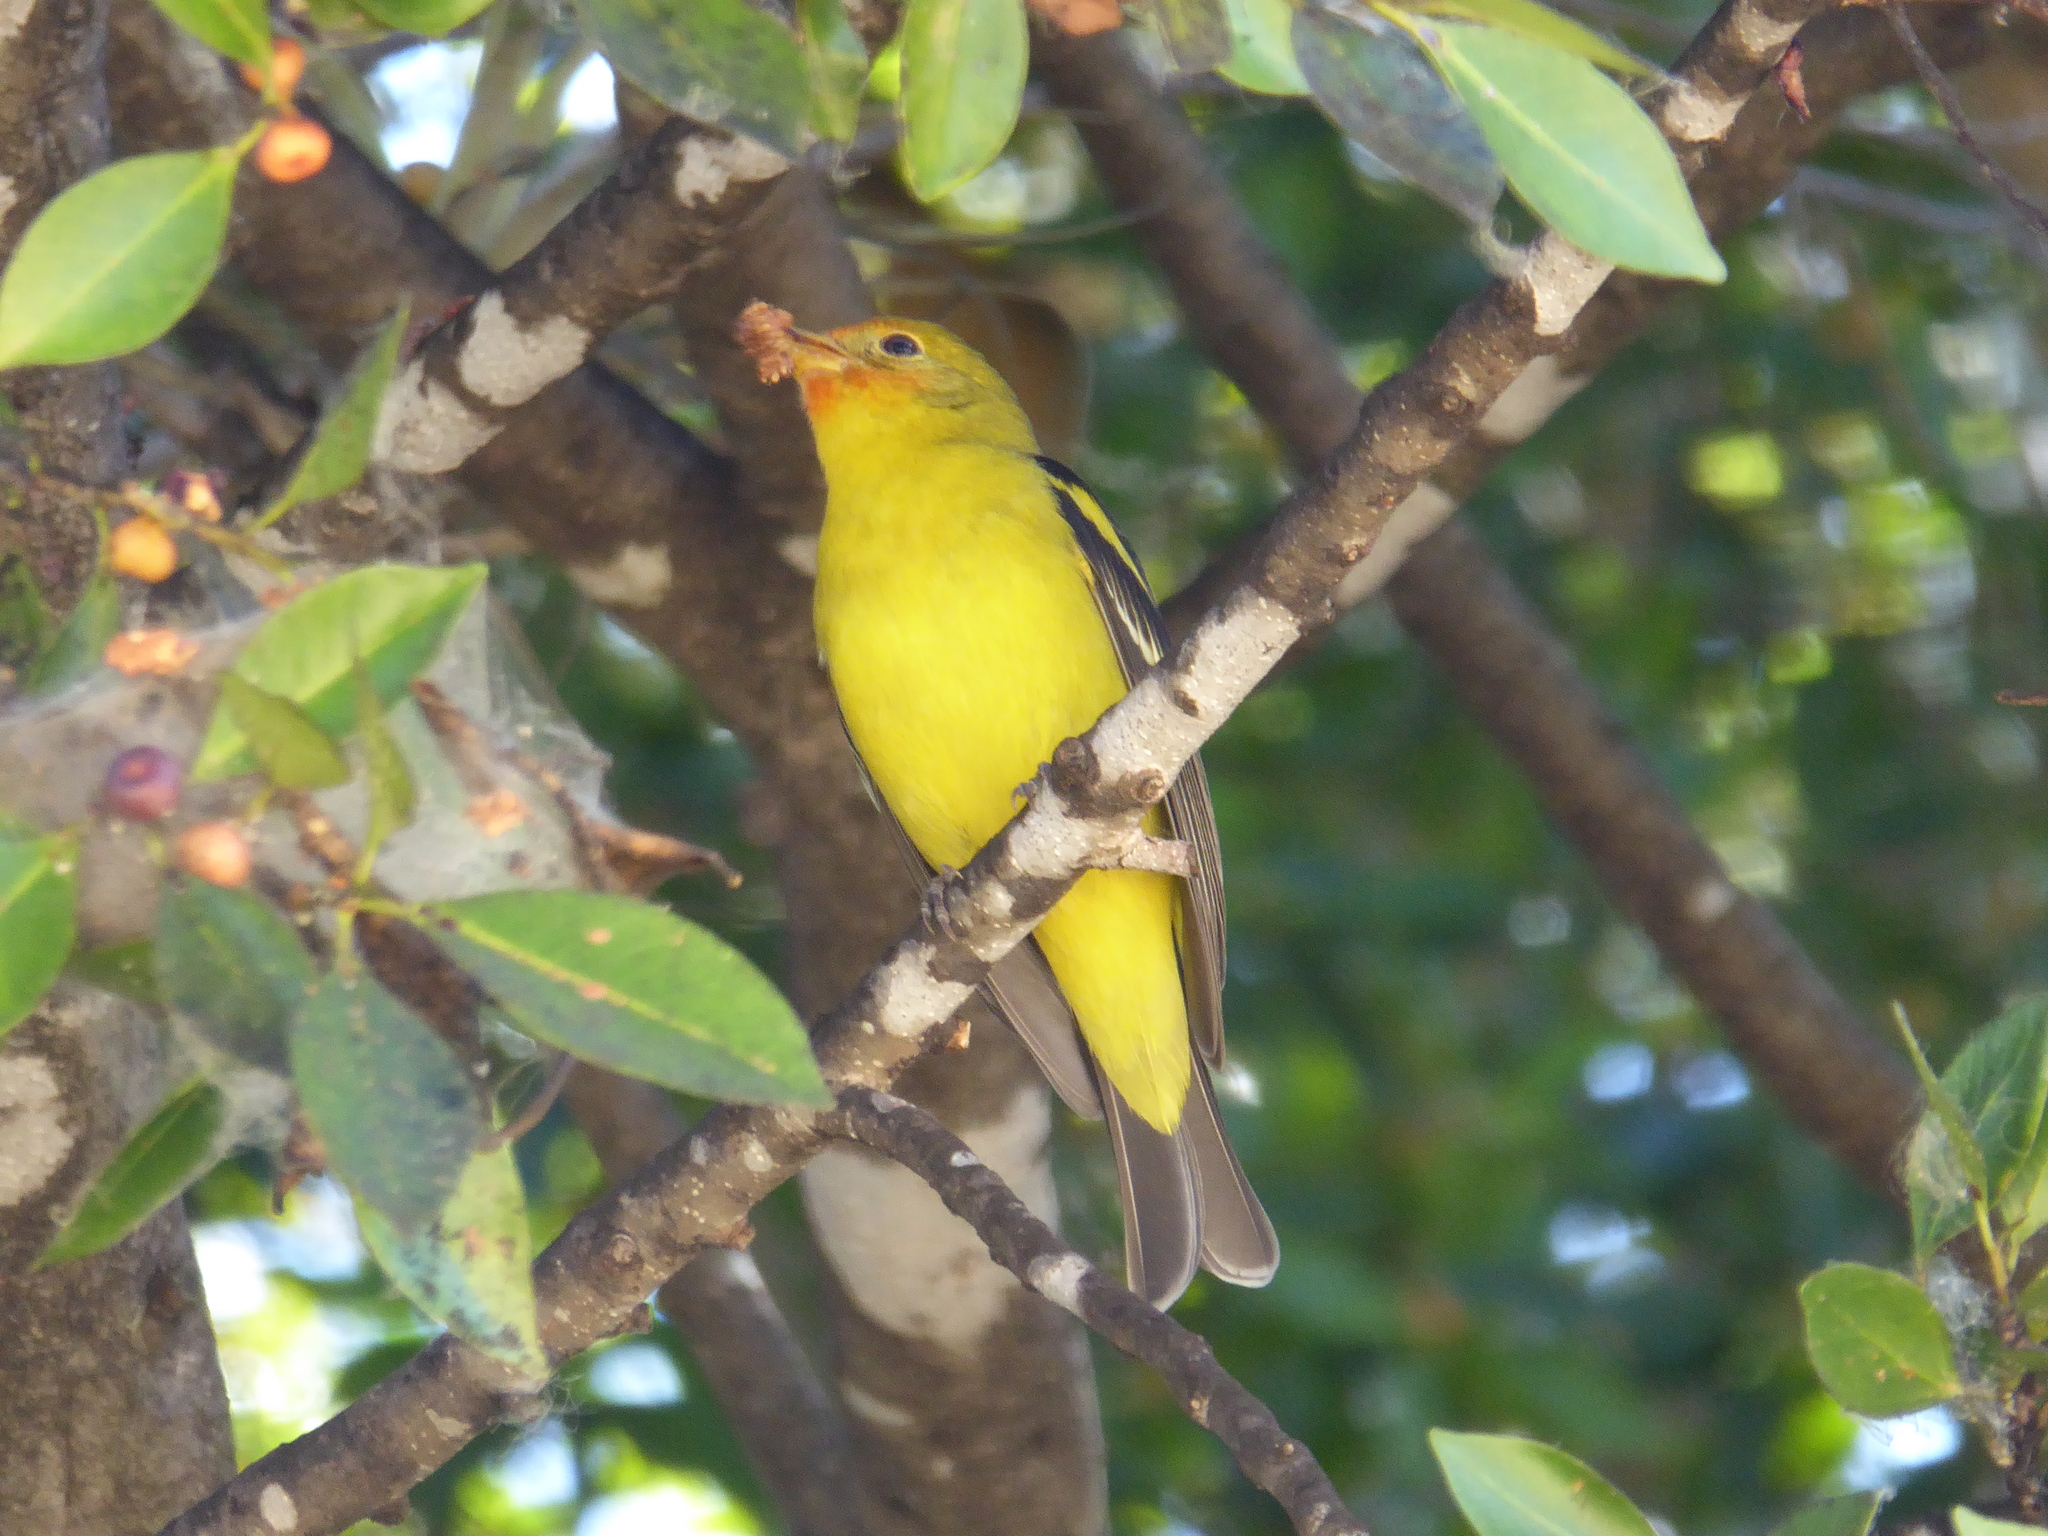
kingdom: Animalia
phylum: Chordata
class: Aves
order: Passeriformes
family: Cardinalidae
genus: Piranga
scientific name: Piranga ludoviciana
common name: Western tanager
